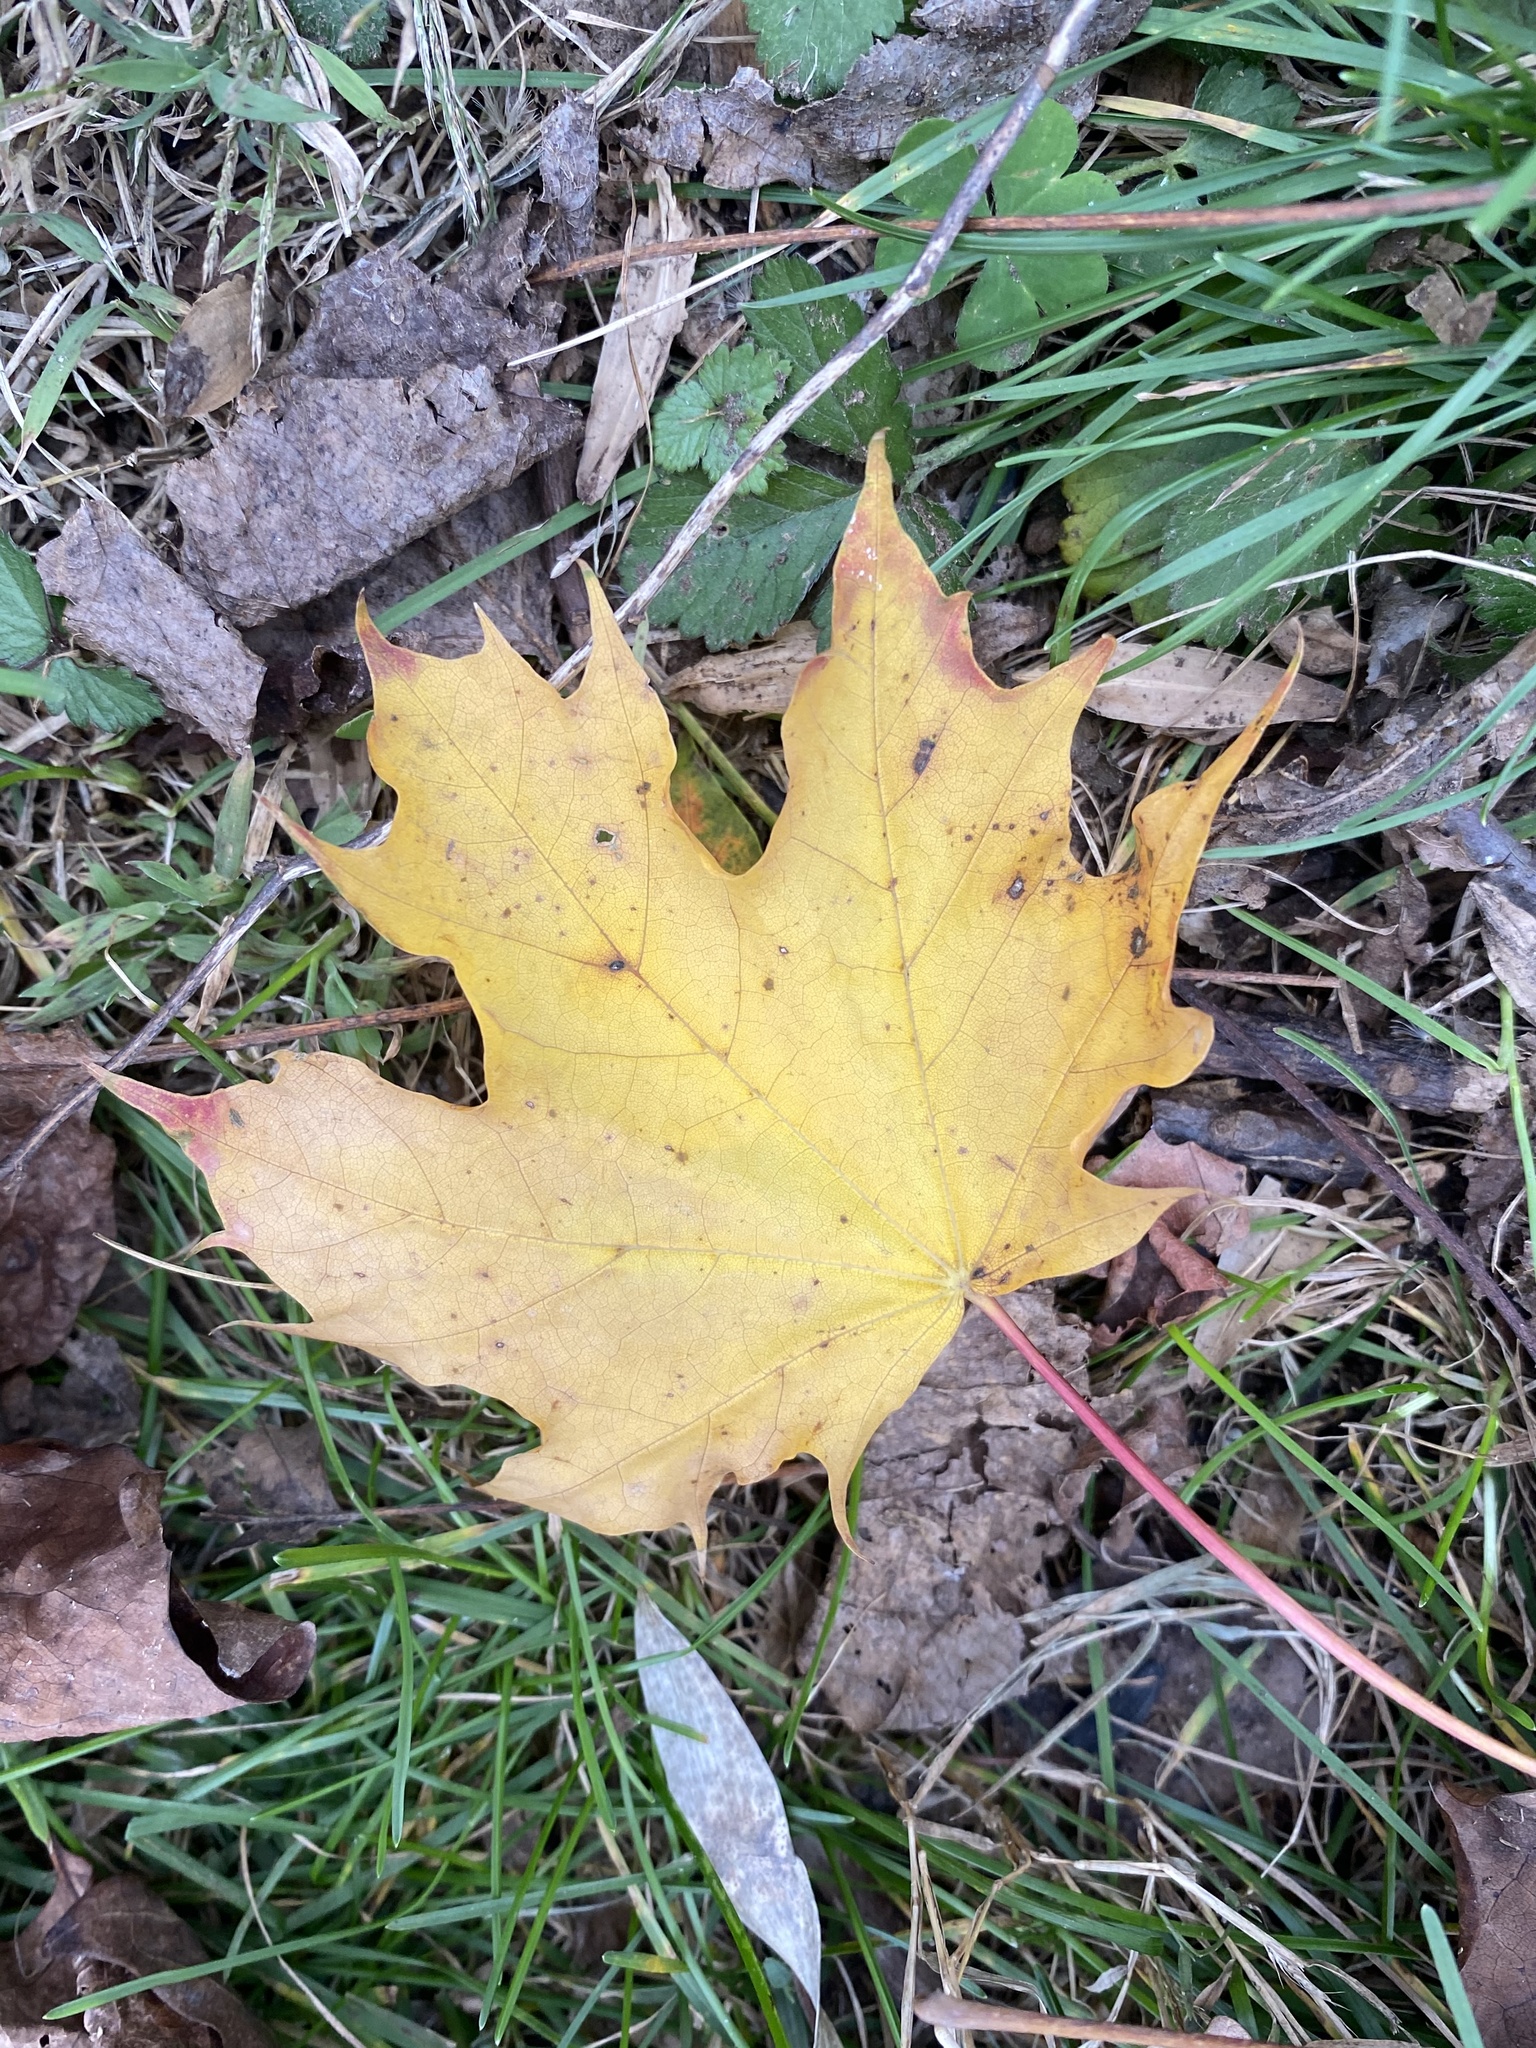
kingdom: Plantae
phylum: Tracheophyta
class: Magnoliopsida
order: Sapindales
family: Sapindaceae
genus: Acer
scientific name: Acer platanoides
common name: Norway maple
